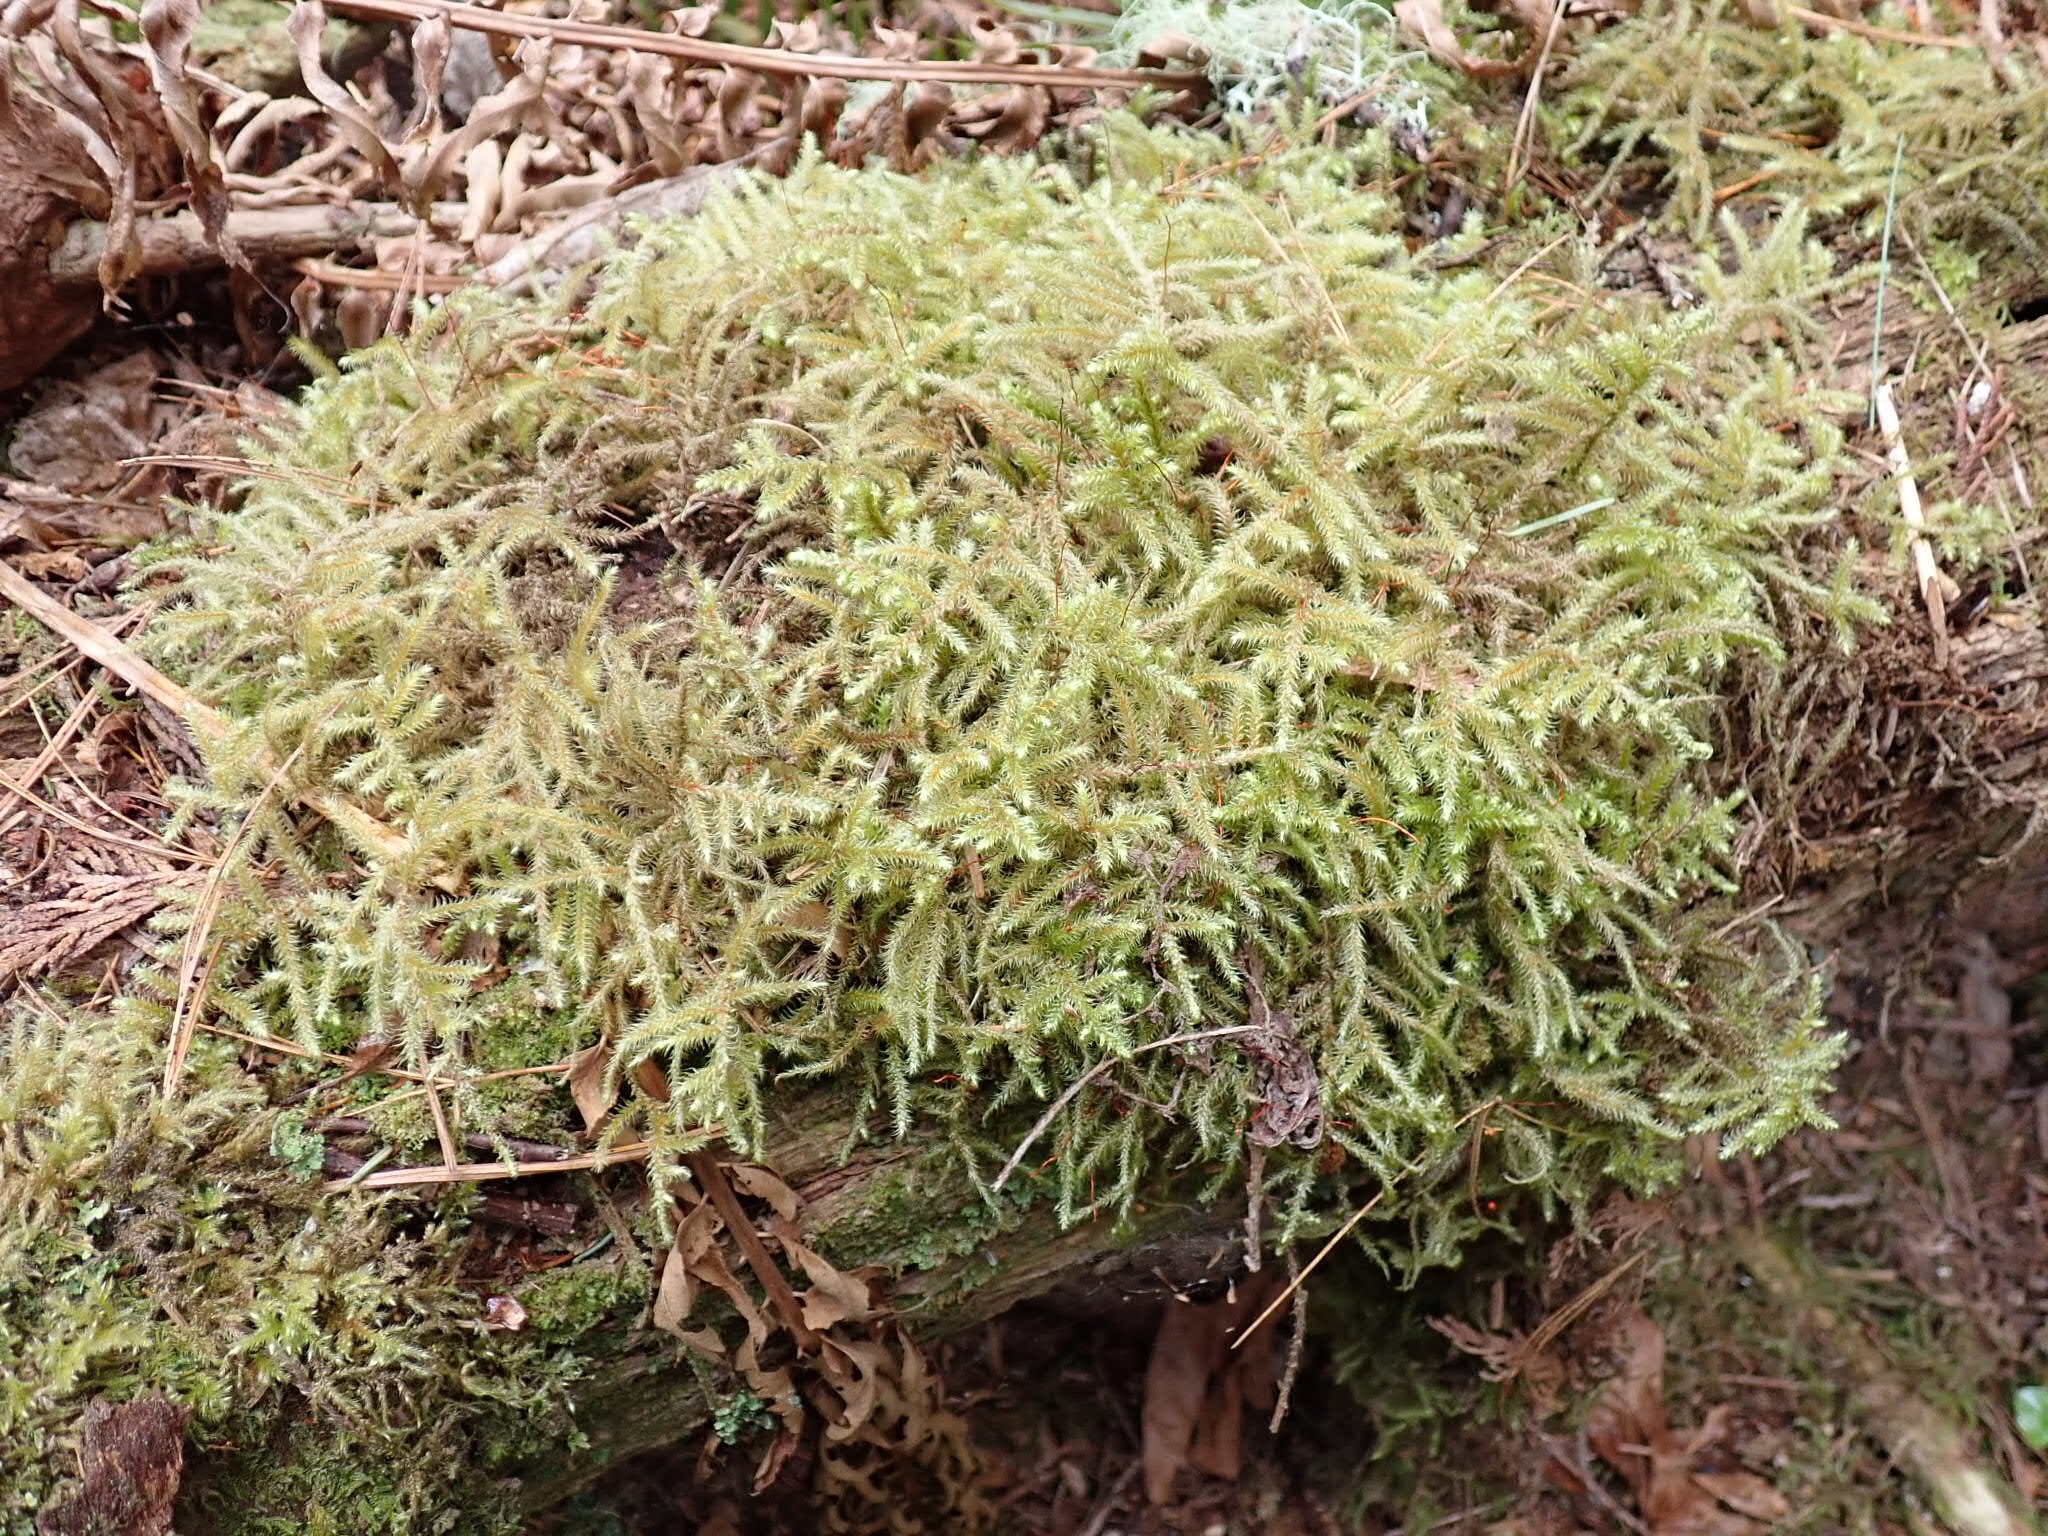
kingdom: Plantae
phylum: Bryophyta
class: Bryopsida
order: Hypnales
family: Hylocomiaceae
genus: Rhytidiadelphus
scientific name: Rhytidiadelphus loreus
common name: Lanky moss
